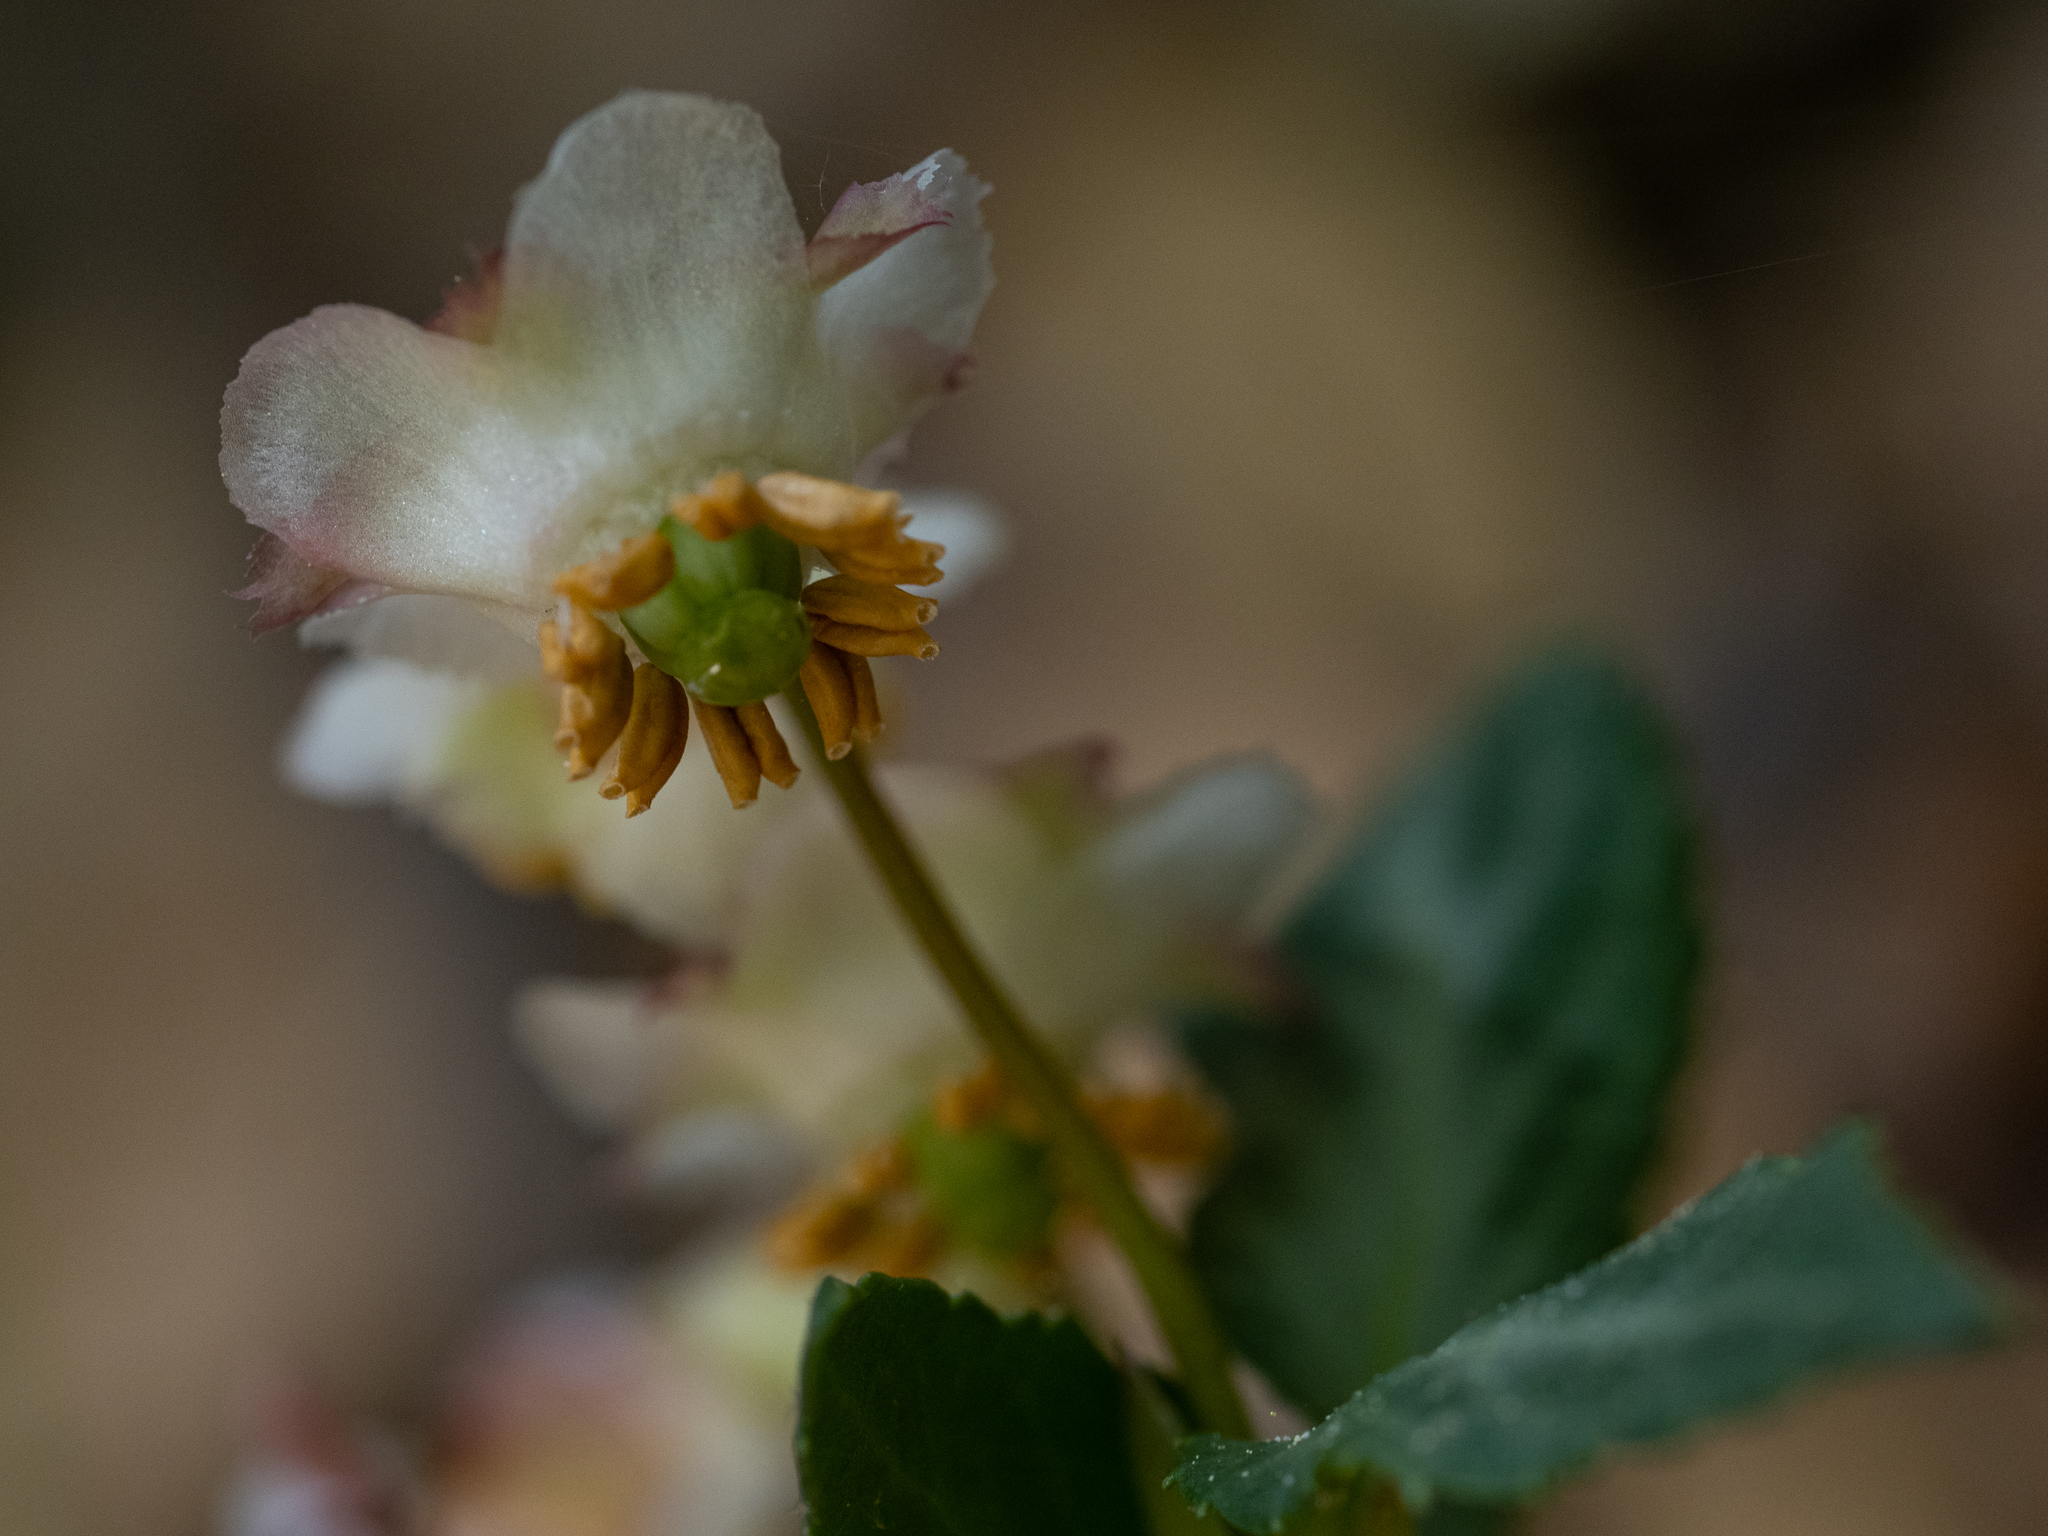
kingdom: Plantae
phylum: Tracheophyta
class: Magnoliopsida
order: Ericales
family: Ericaceae
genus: Chimaphila
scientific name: Chimaphila menziesii
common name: Menzies' pipsissewa
